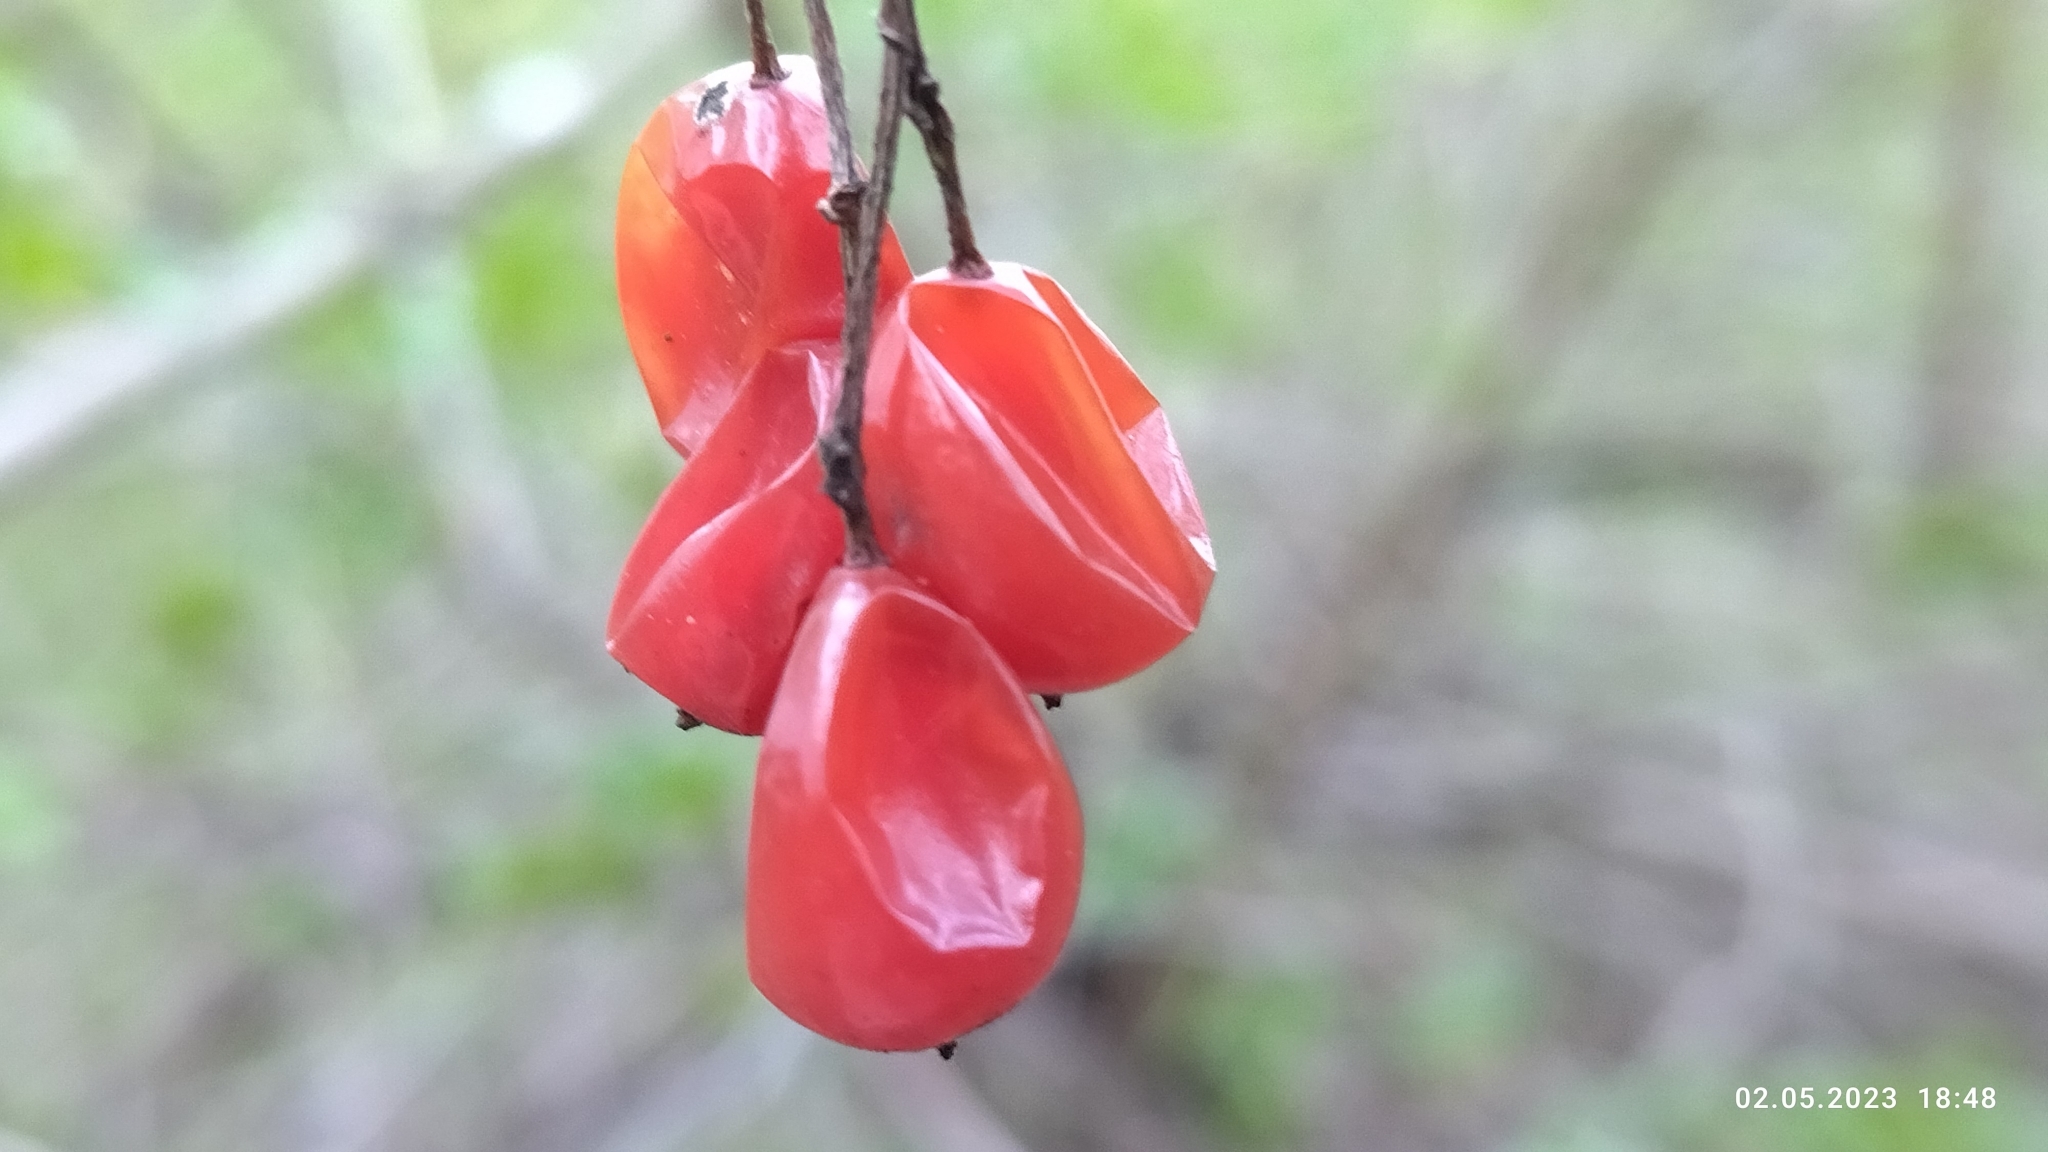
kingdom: Plantae
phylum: Tracheophyta
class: Magnoliopsida
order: Dipsacales
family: Viburnaceae
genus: Viburnum
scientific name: Viburnum opulus
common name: Guelder-rose
